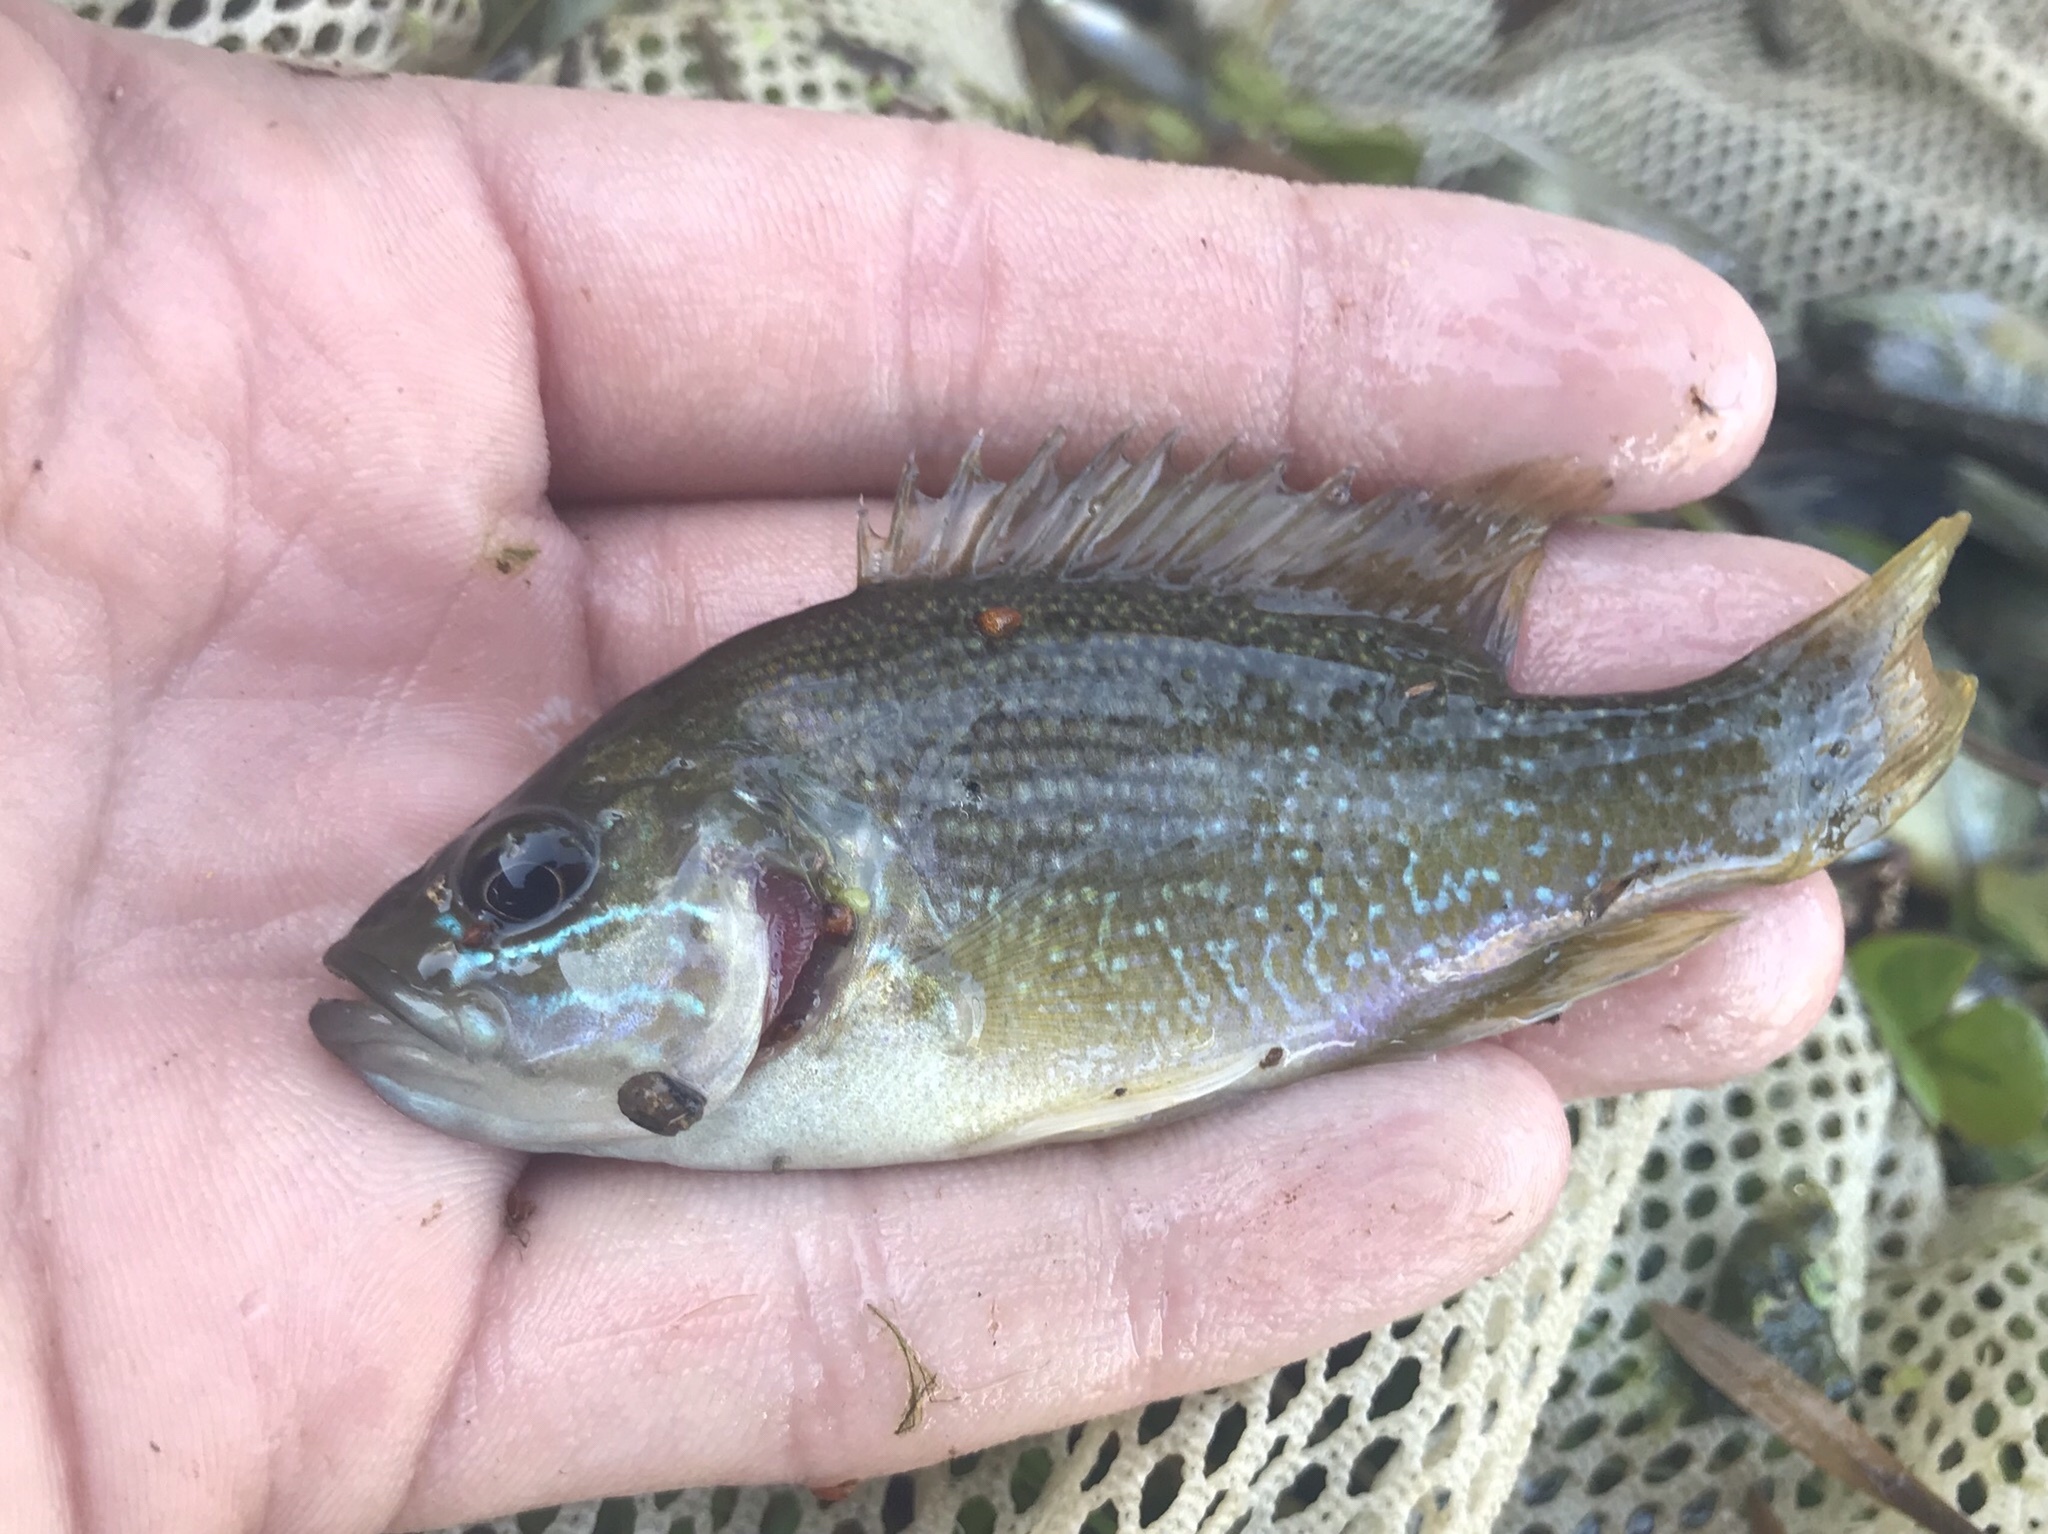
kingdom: Animalia
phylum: Chordata
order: Perciformes
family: Centrarchidae
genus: Lepomis
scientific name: Lepomis cyanellus
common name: Green sunfish
